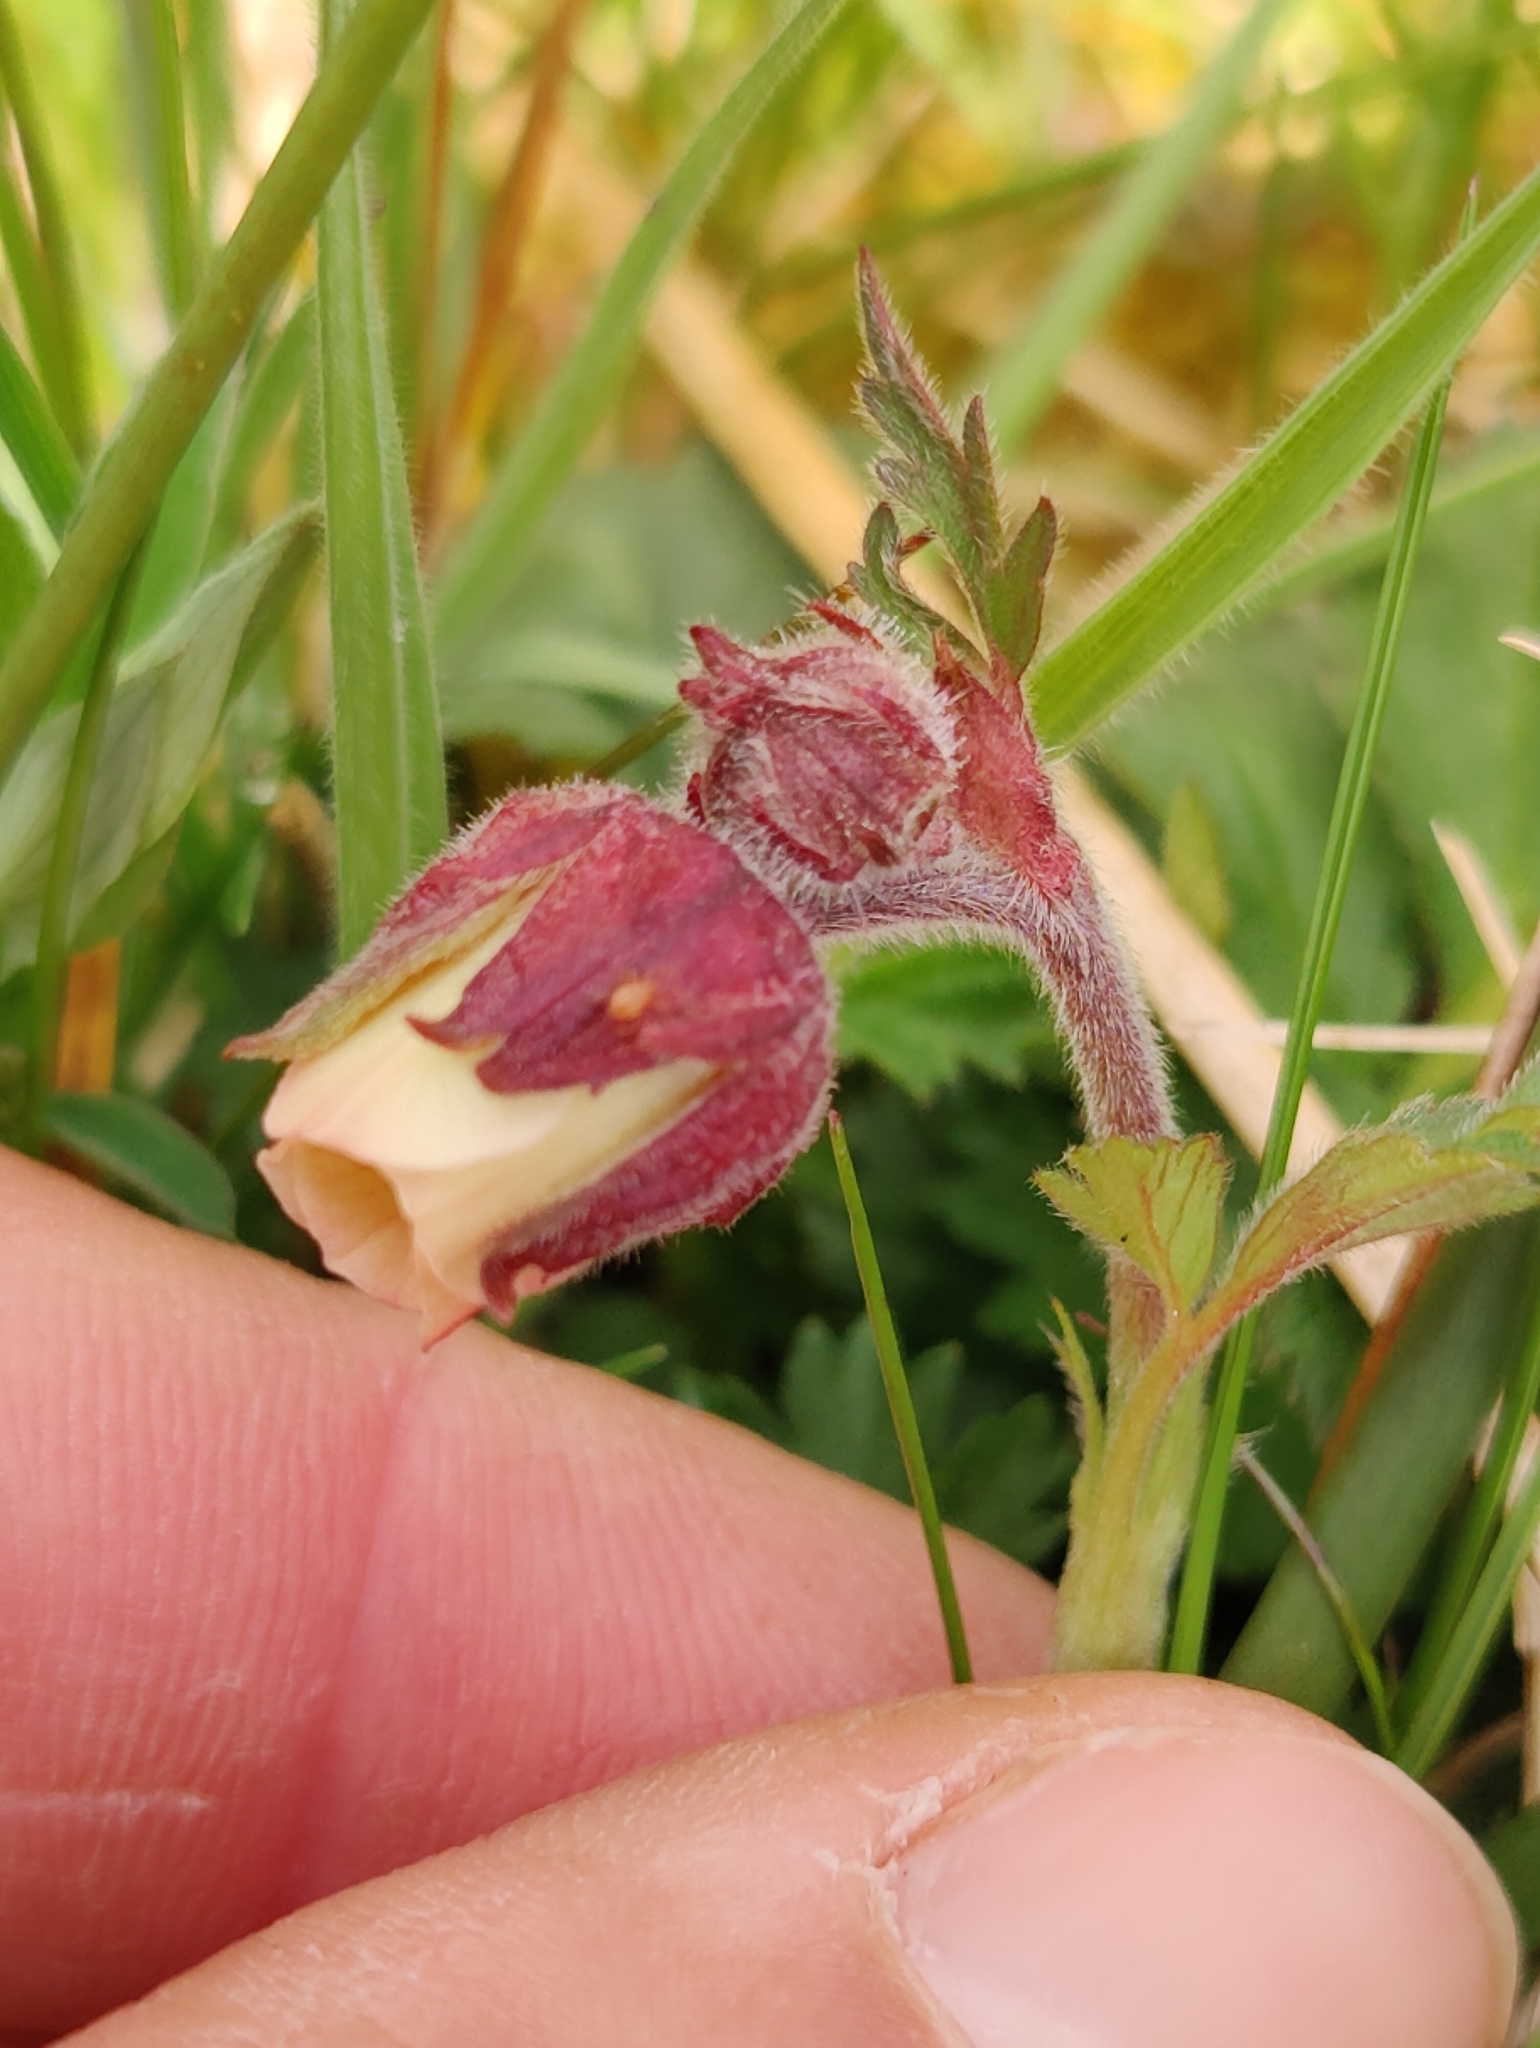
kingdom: Plantae
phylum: Tracheophyta
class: Magnoliopsida
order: Rosales
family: Rosaceae
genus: Geum
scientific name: Geum rivale
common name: Water avens
